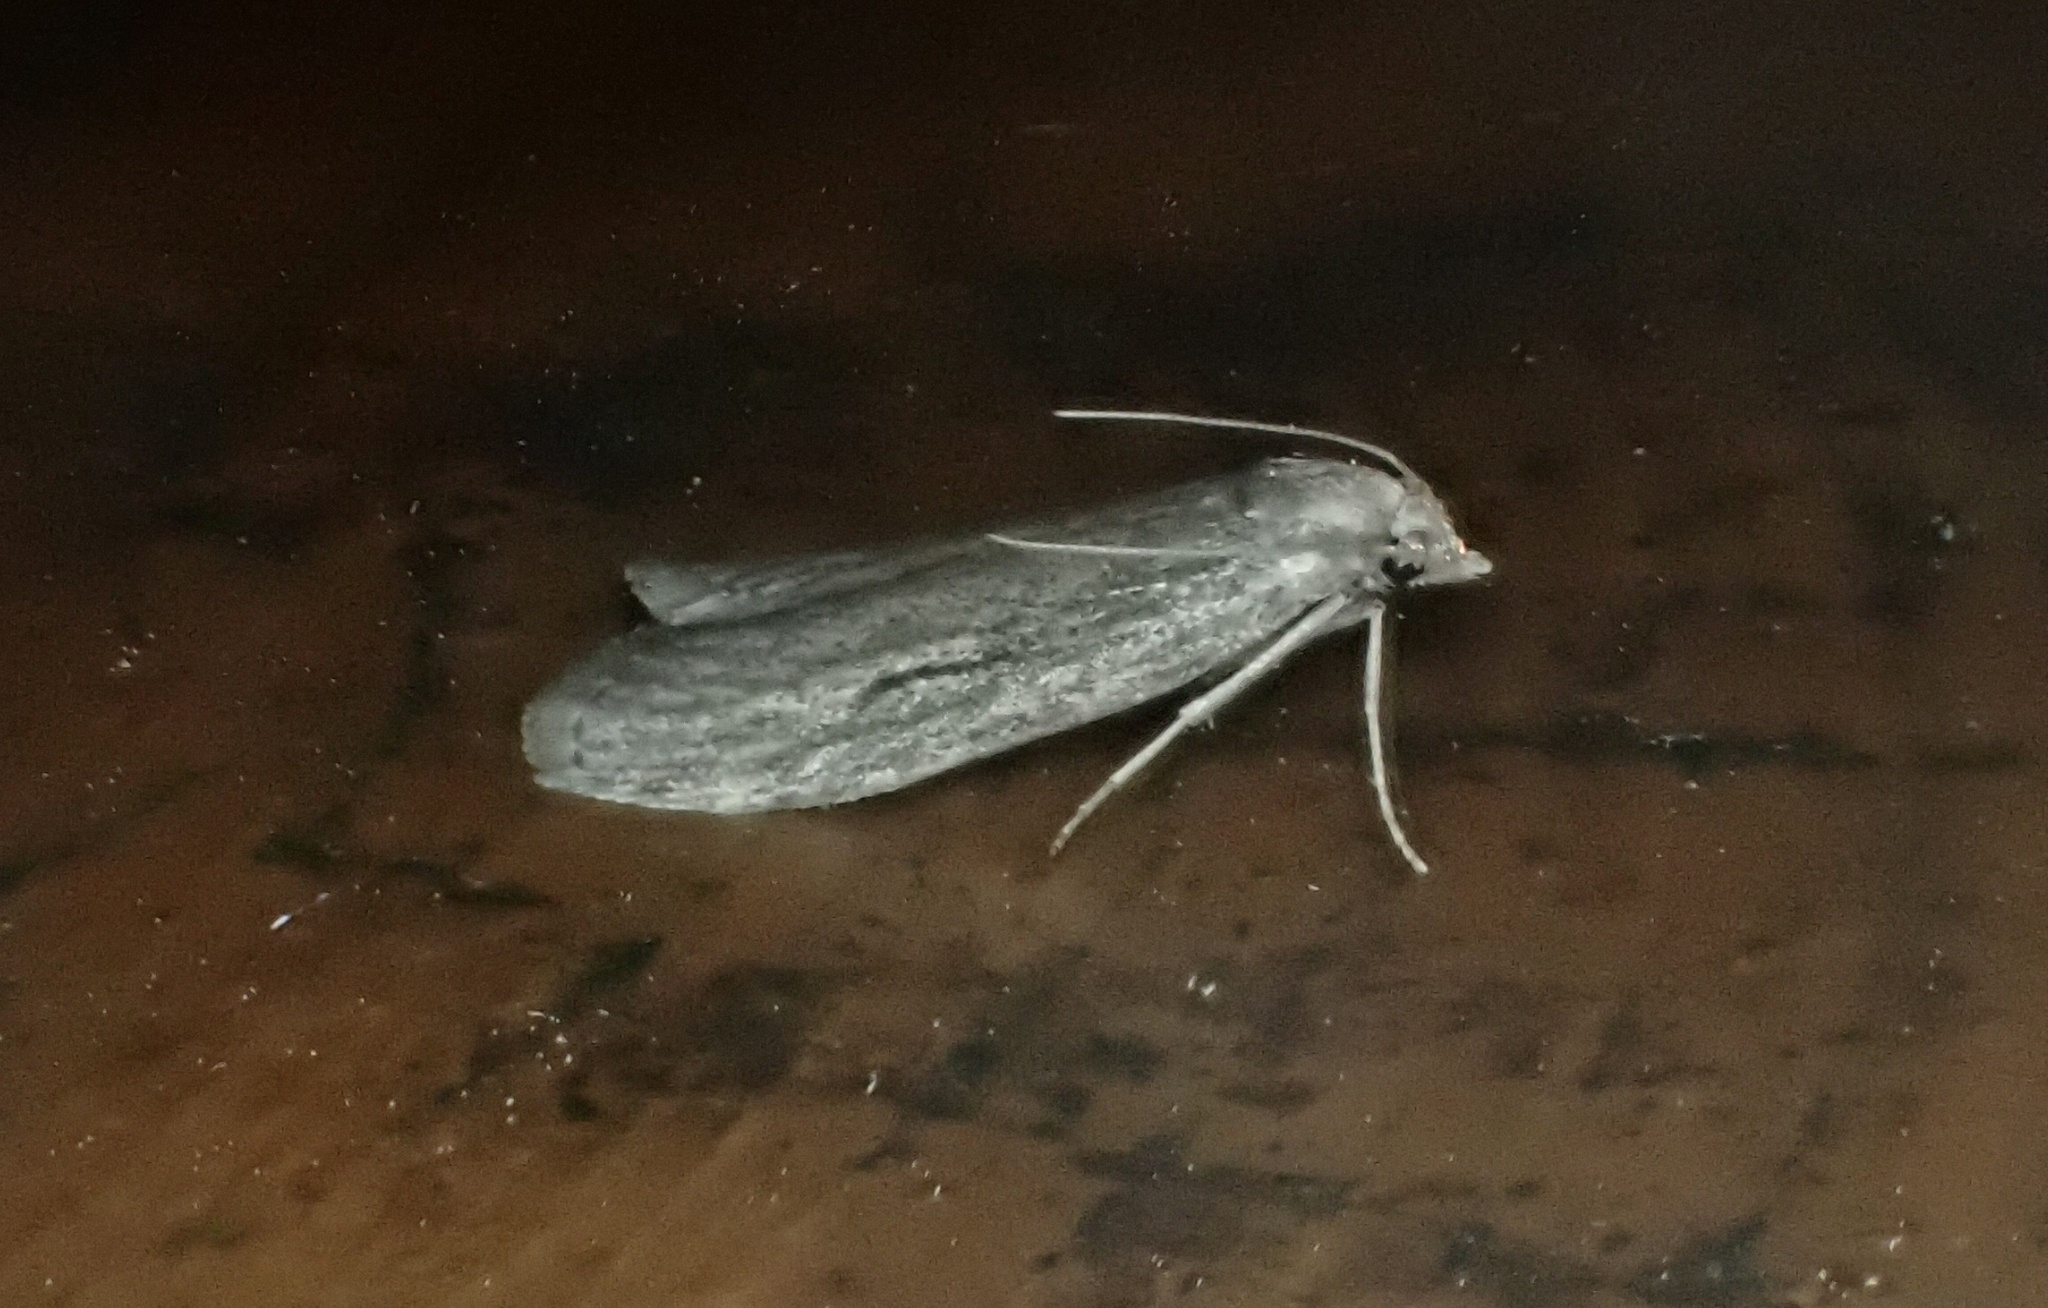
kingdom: Animalia
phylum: Arthropoda
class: Insecta
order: Lepidoptera
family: Pyralidae
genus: Aphomia
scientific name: Aphomia sociella
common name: Bee moth
